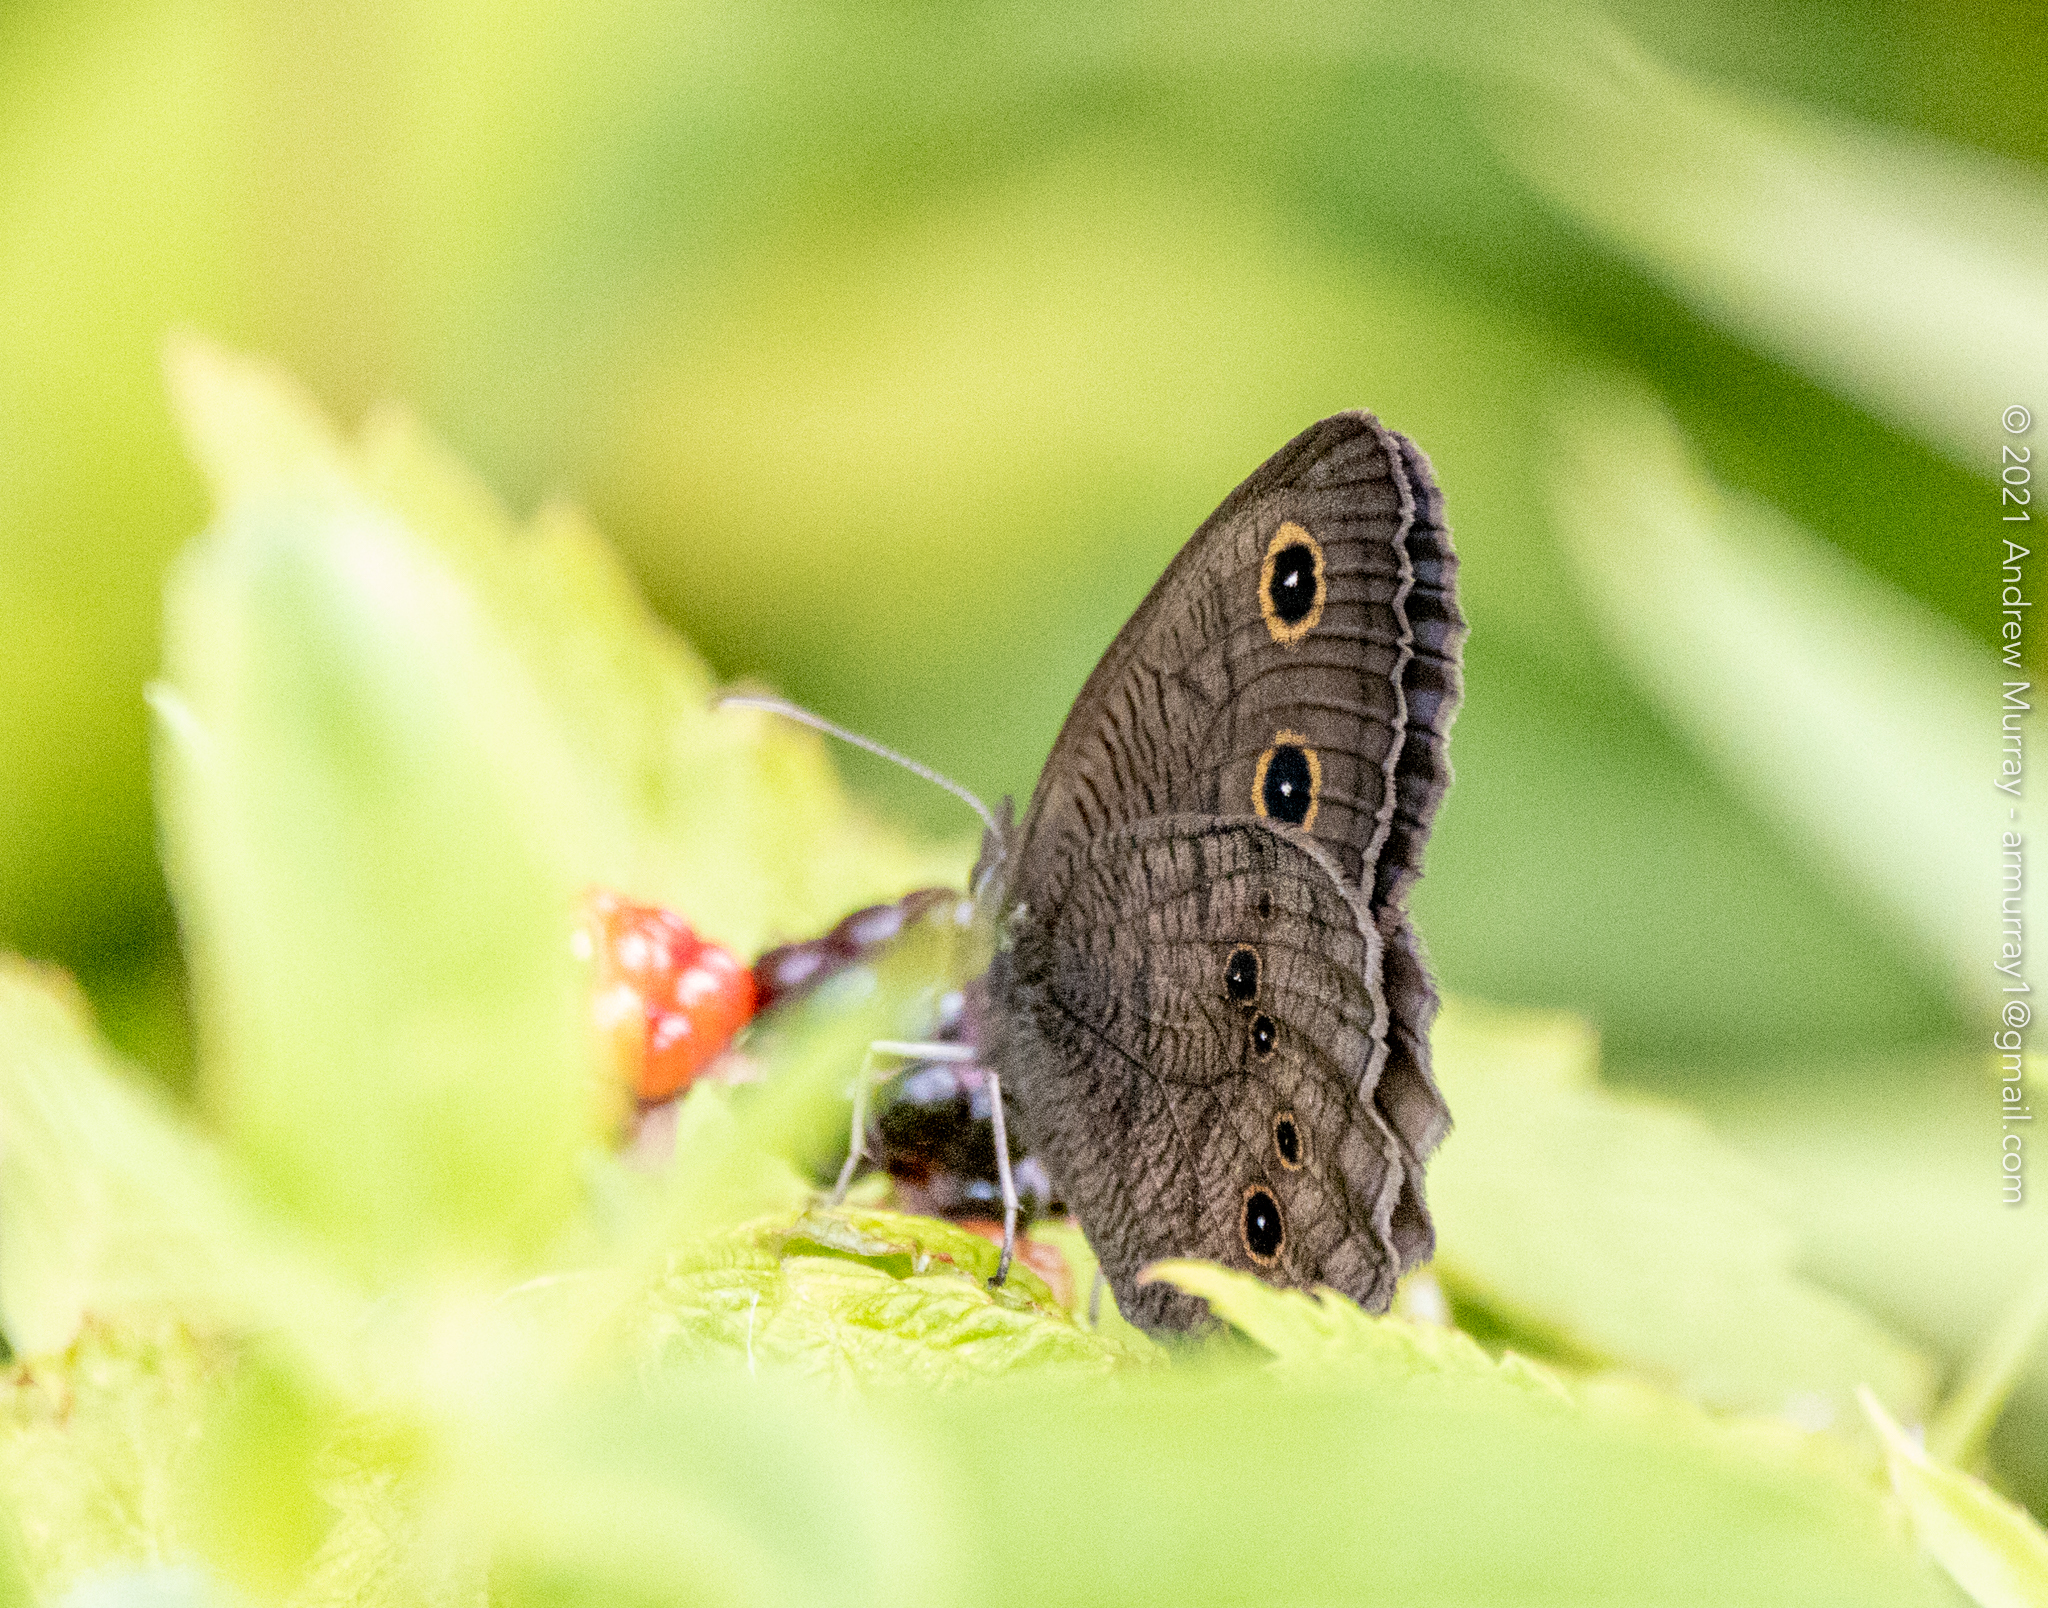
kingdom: Animalia
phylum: Arthropoda
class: Insecta
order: Lepidoptera
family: Nymphalidae
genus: Cercyonis
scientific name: Cercyonis pegala
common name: Common wood-nymph
